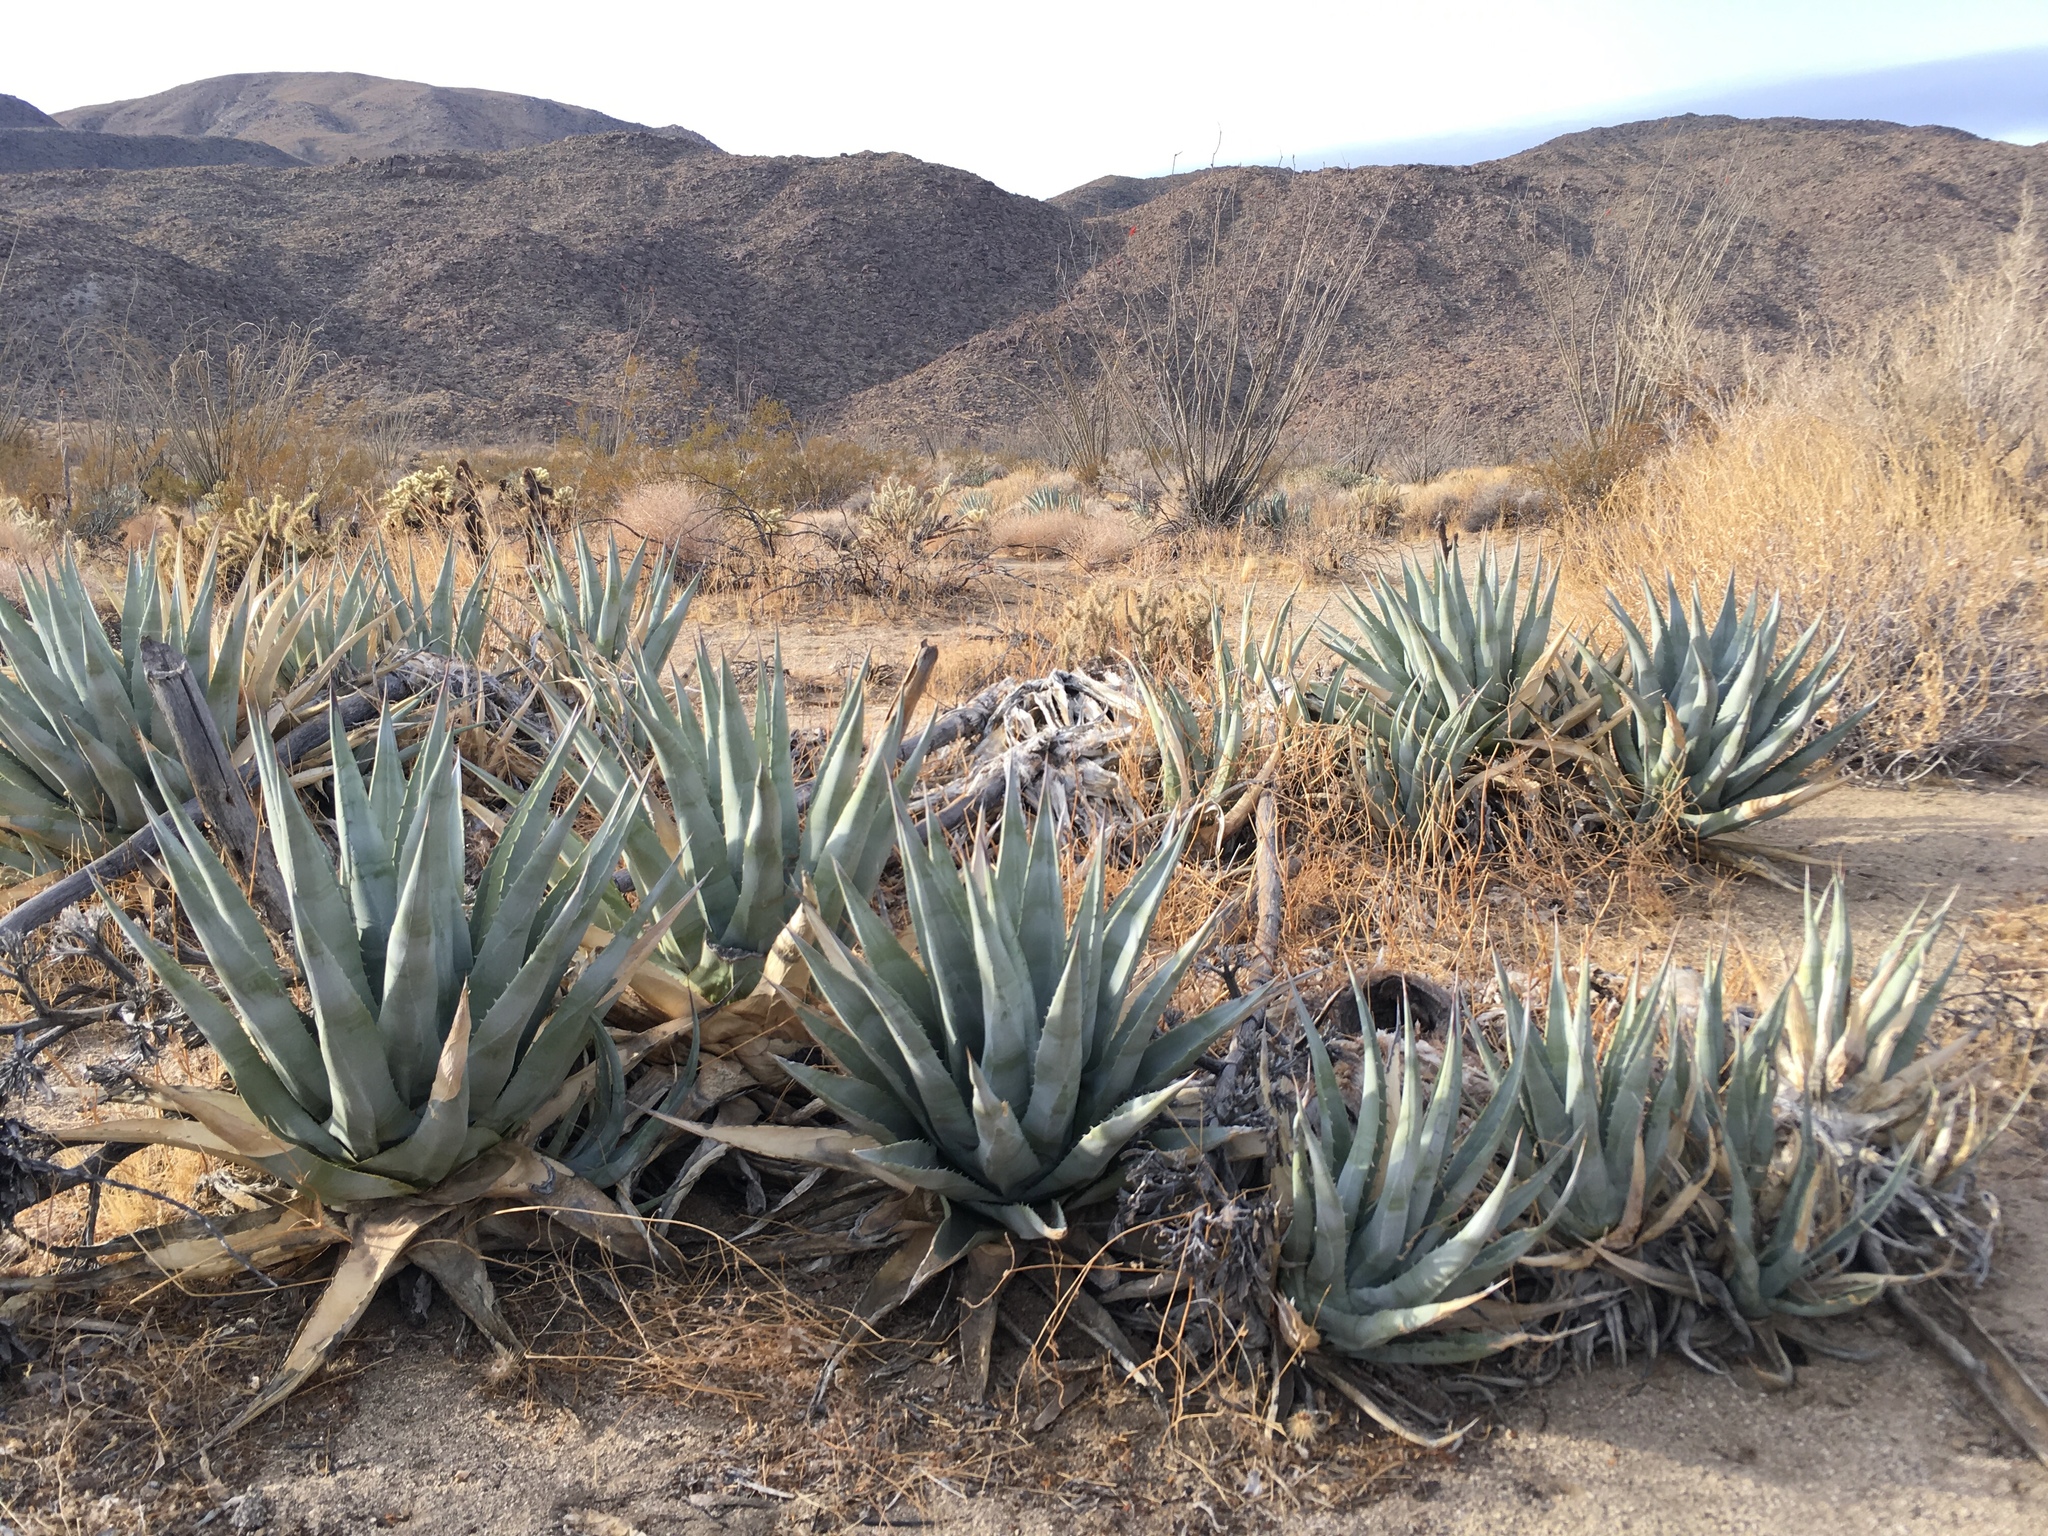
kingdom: Plantae
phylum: Tracheophyta
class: Liliopsida
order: Asparagales
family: Asparagaceae
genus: Agave
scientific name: Agave deserti
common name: Desert agave
